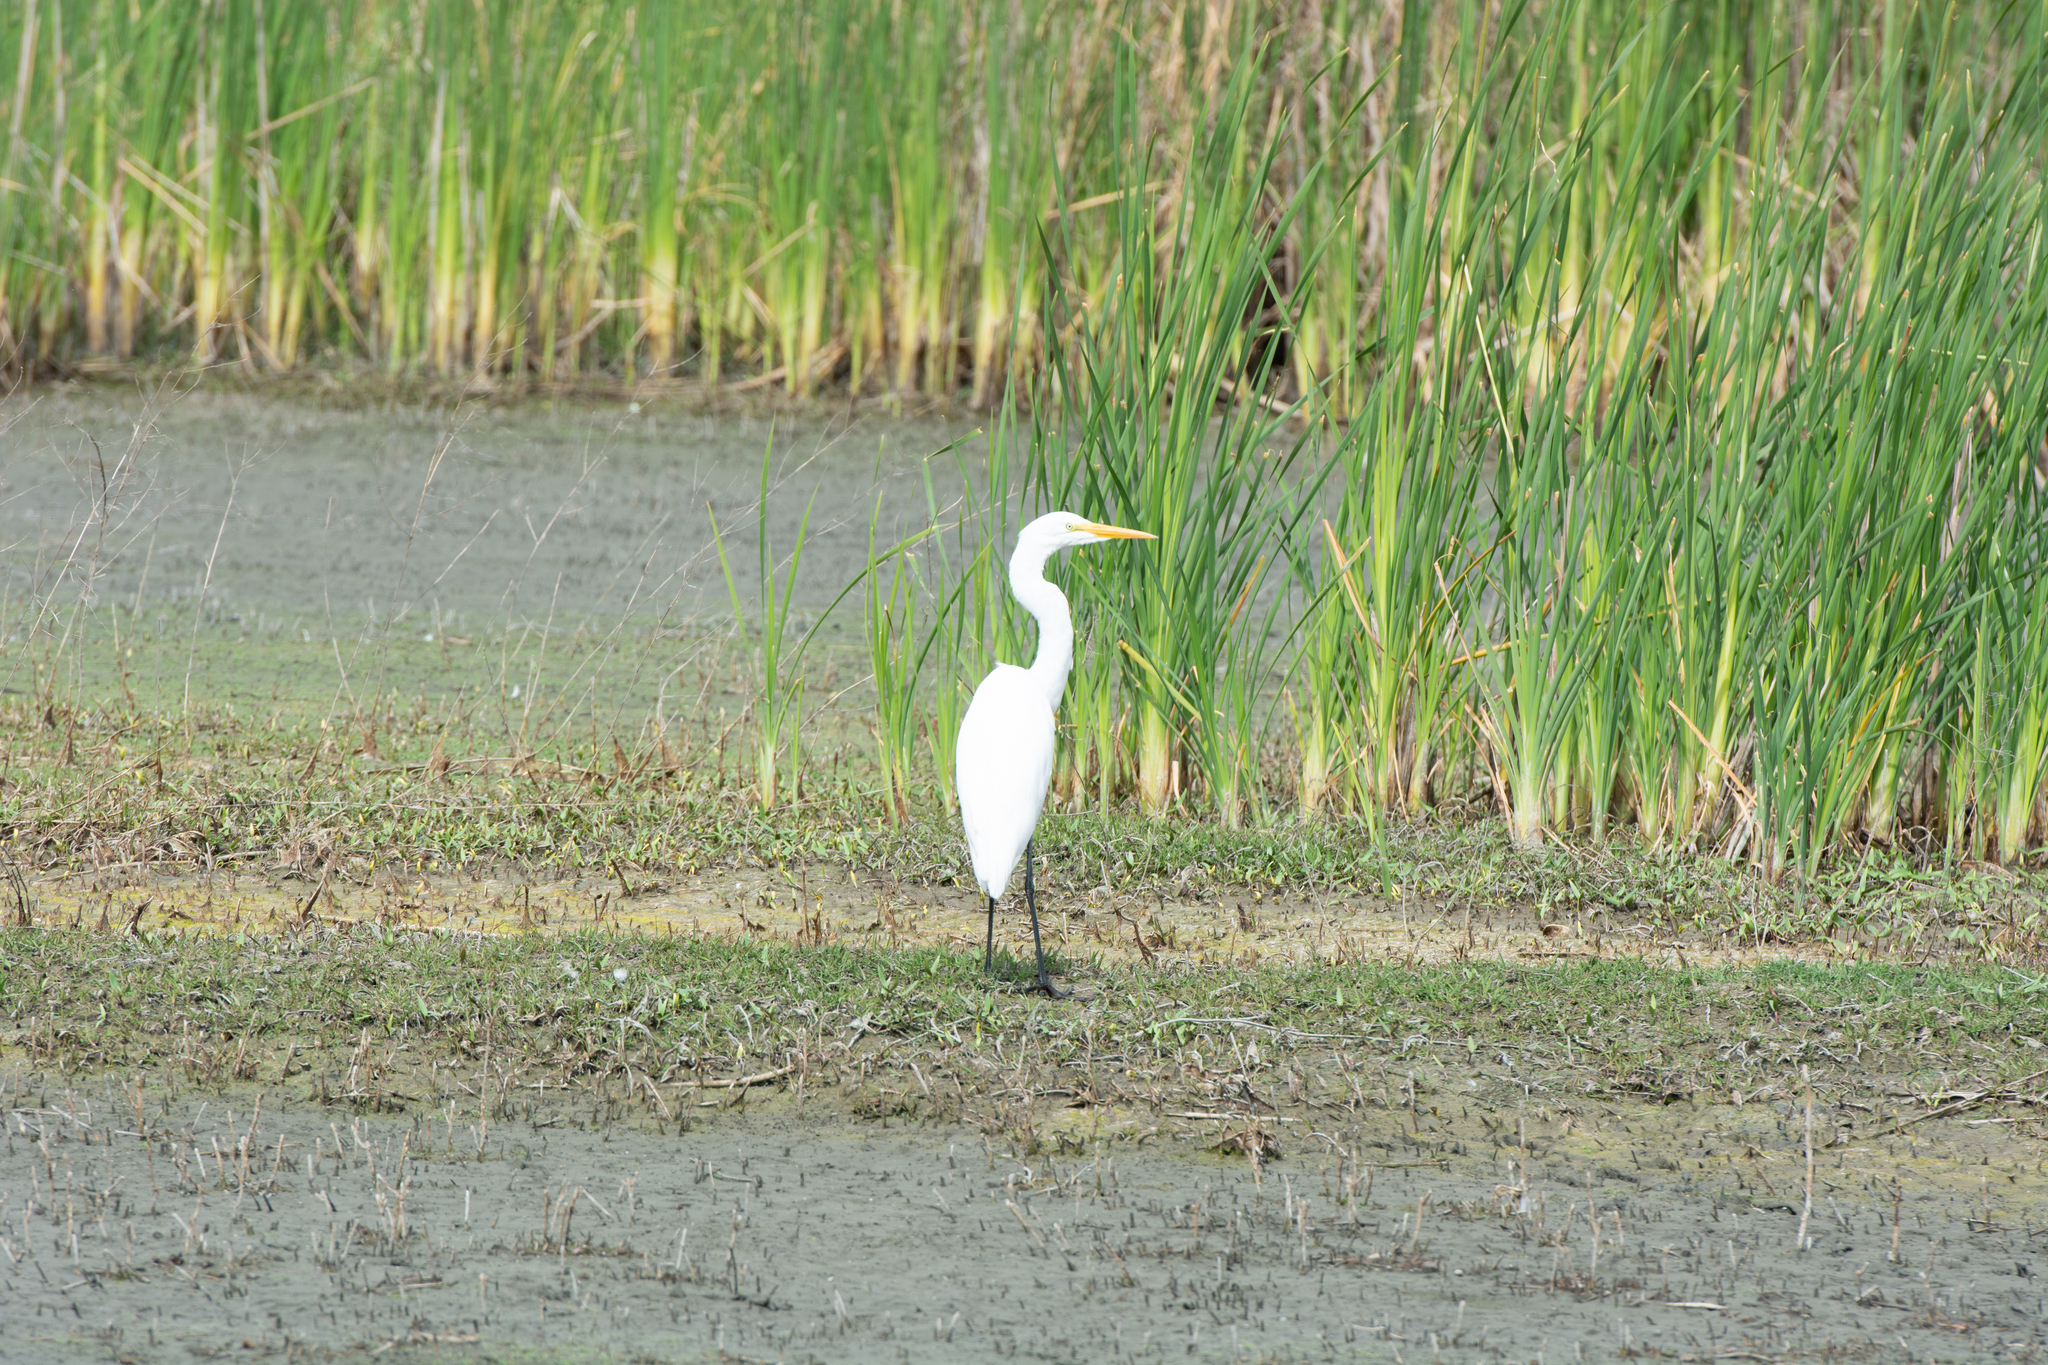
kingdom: Animalia
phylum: Chordata
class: Aves
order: Pelecaniformes
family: Ardeidae
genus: Ardea
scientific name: Ardea alba
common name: Great egret
